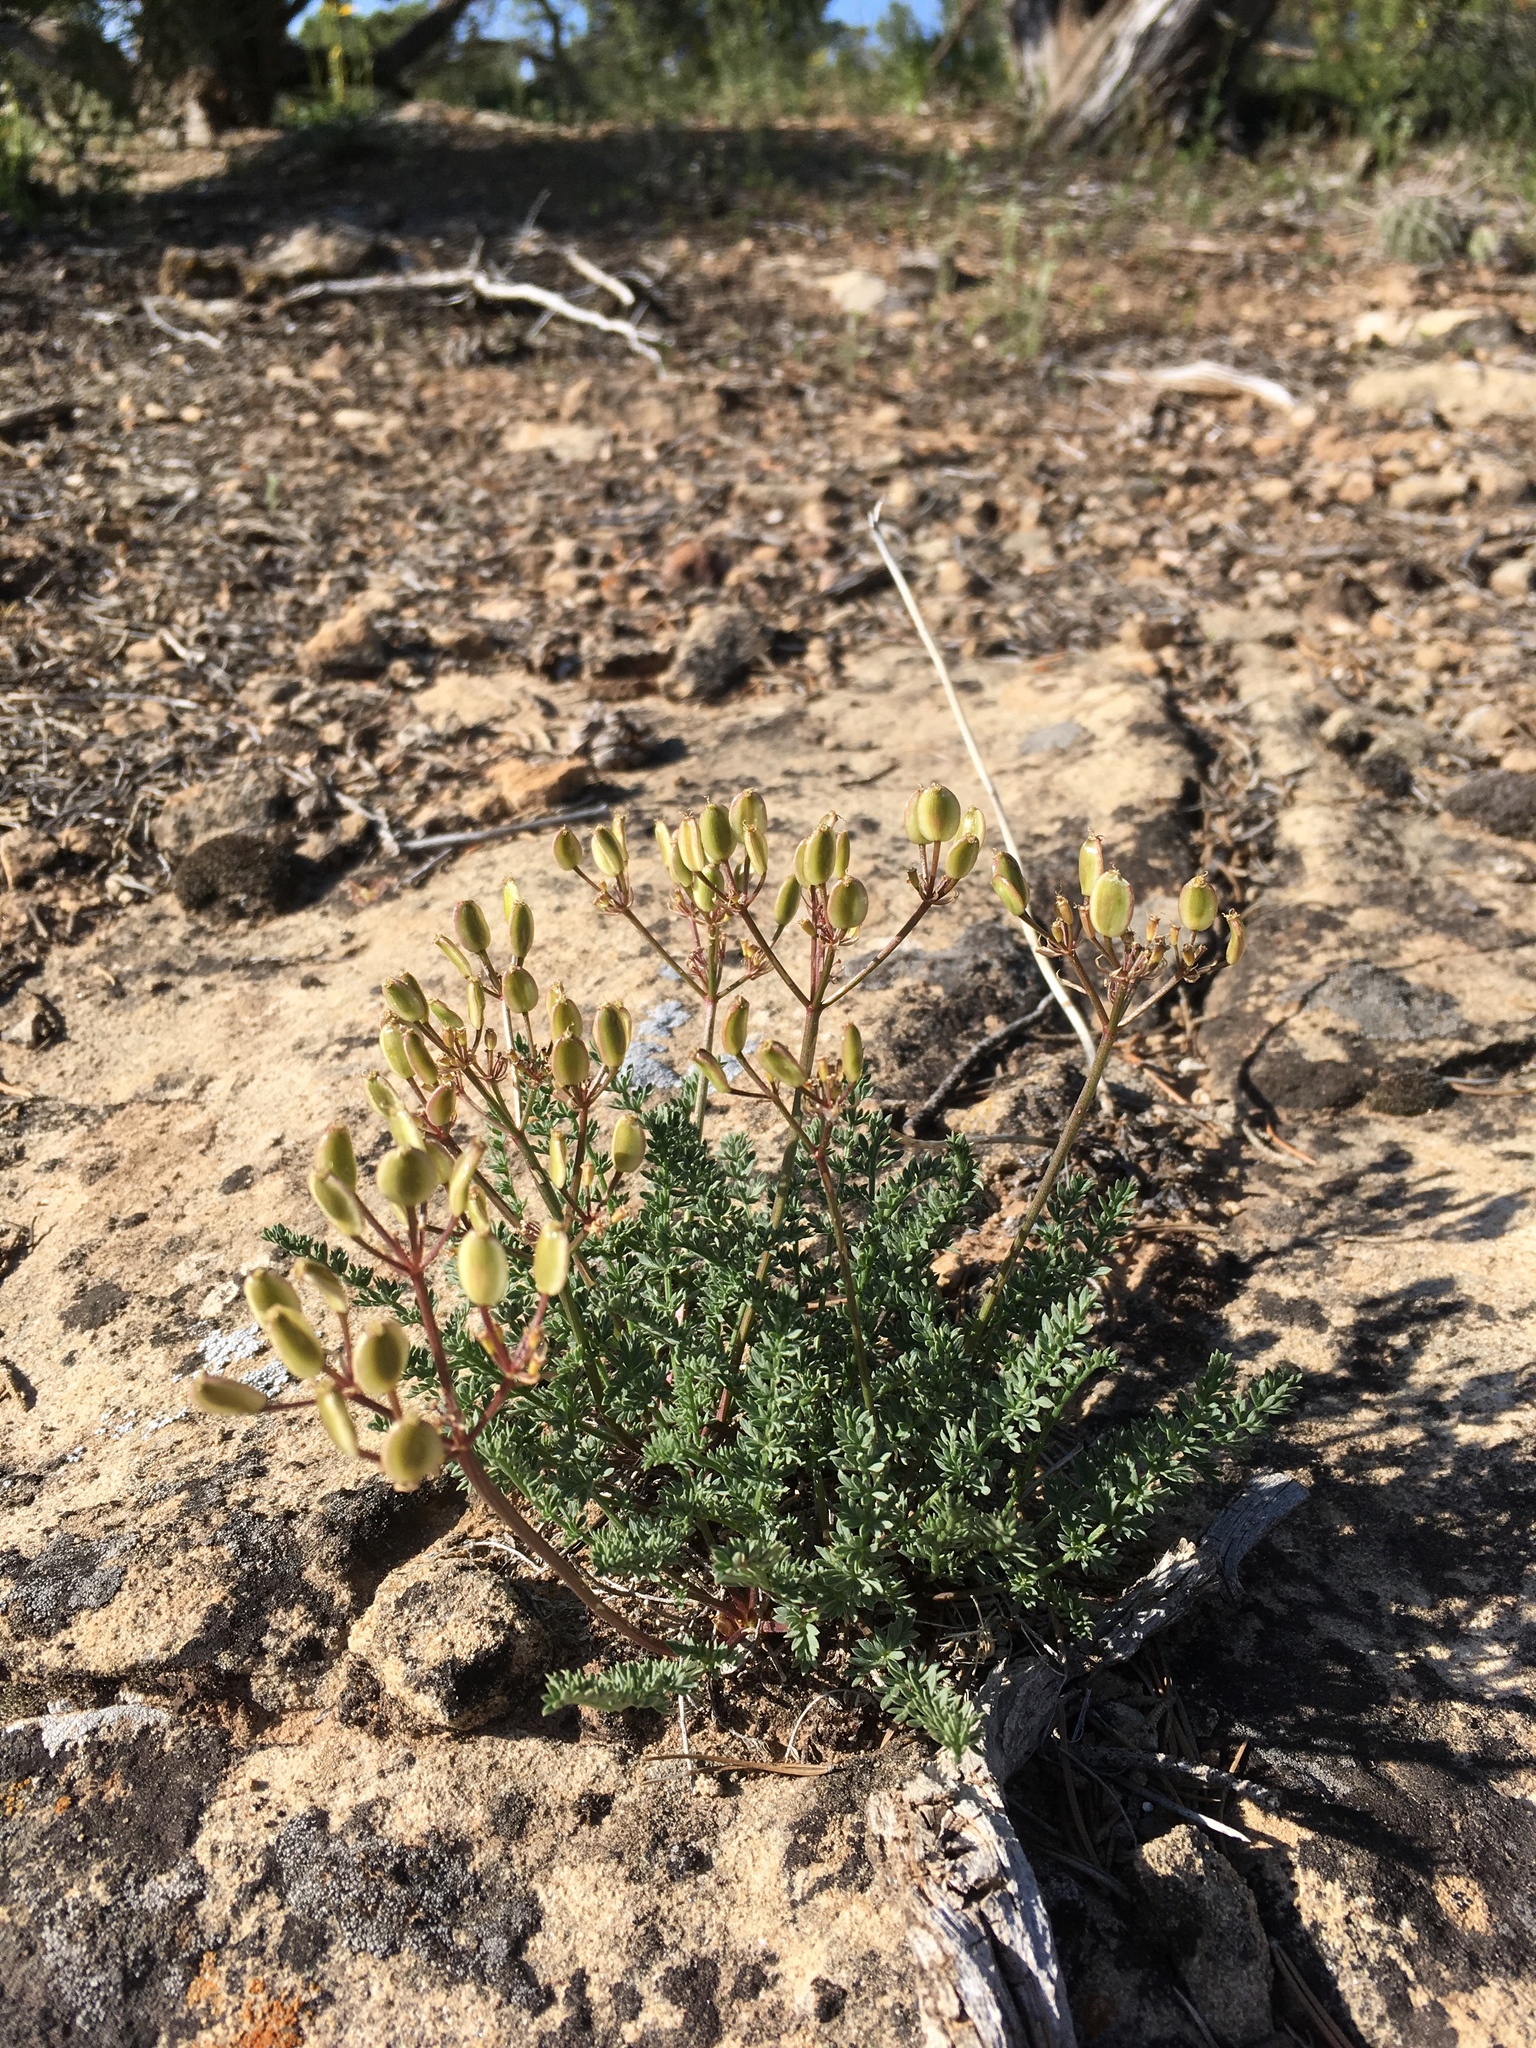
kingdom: Plantae
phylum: Tracheophyta
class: Magnoliopsida
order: Apiales
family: Apiaceae
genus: Lomatium
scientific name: Lomatium eastwoodiae
